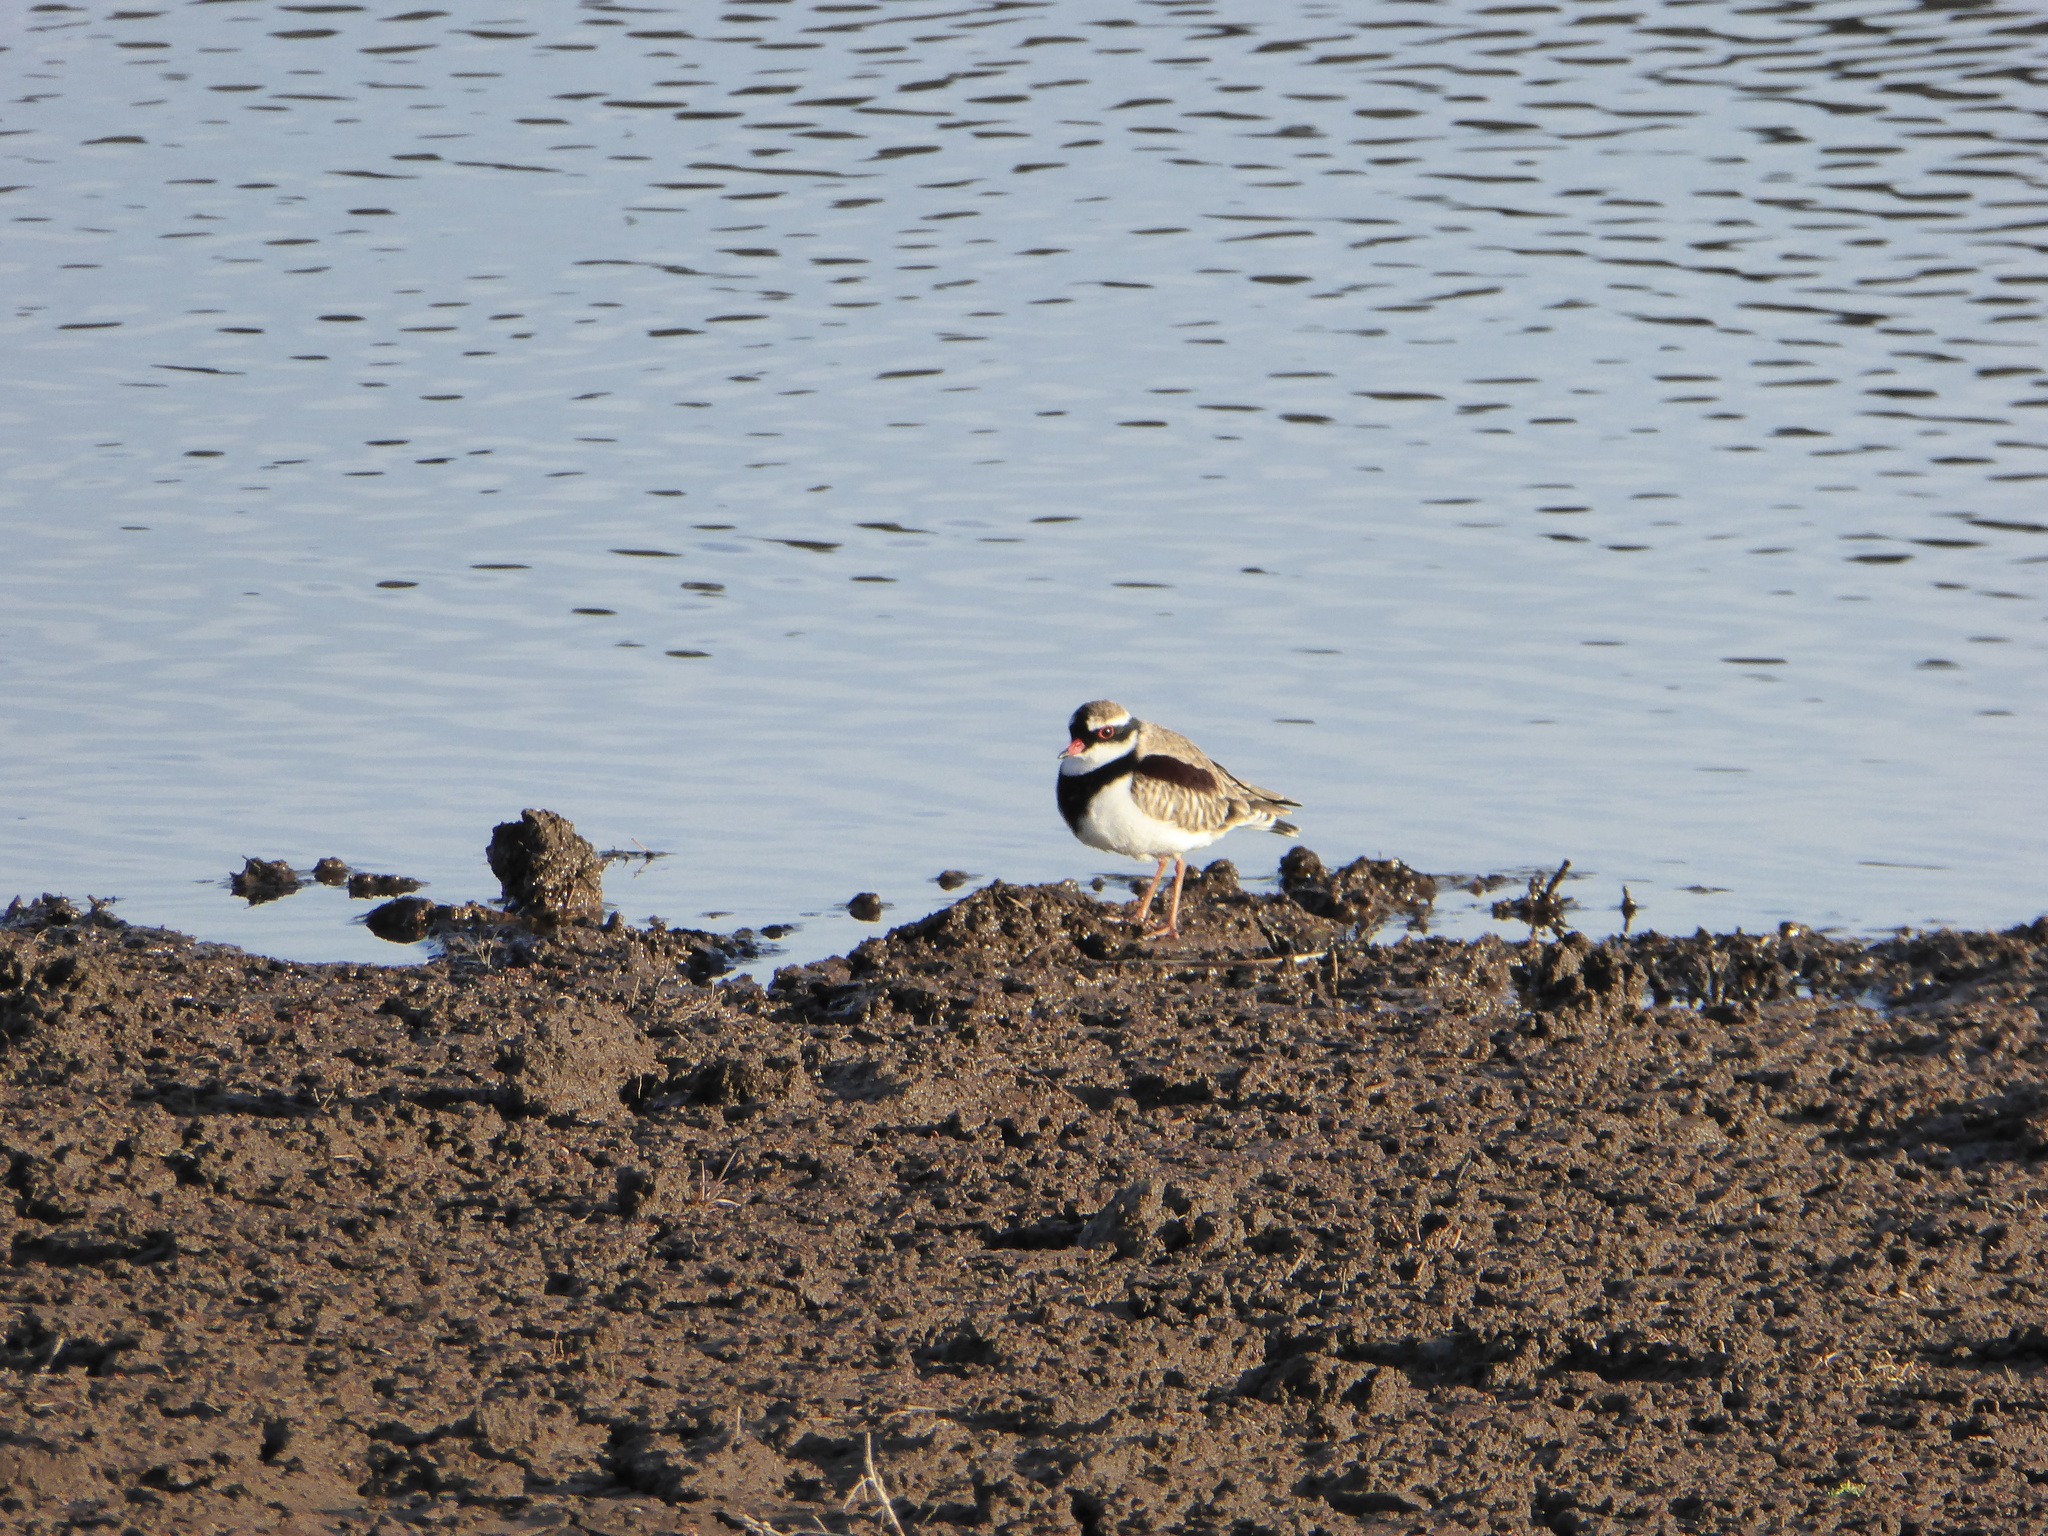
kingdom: Animalia
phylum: Chordata
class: Aves
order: Charadriiformes
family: Charadriidae
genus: Elseyornis
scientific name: Elseyornis melanops
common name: Black-fronted dotterel
